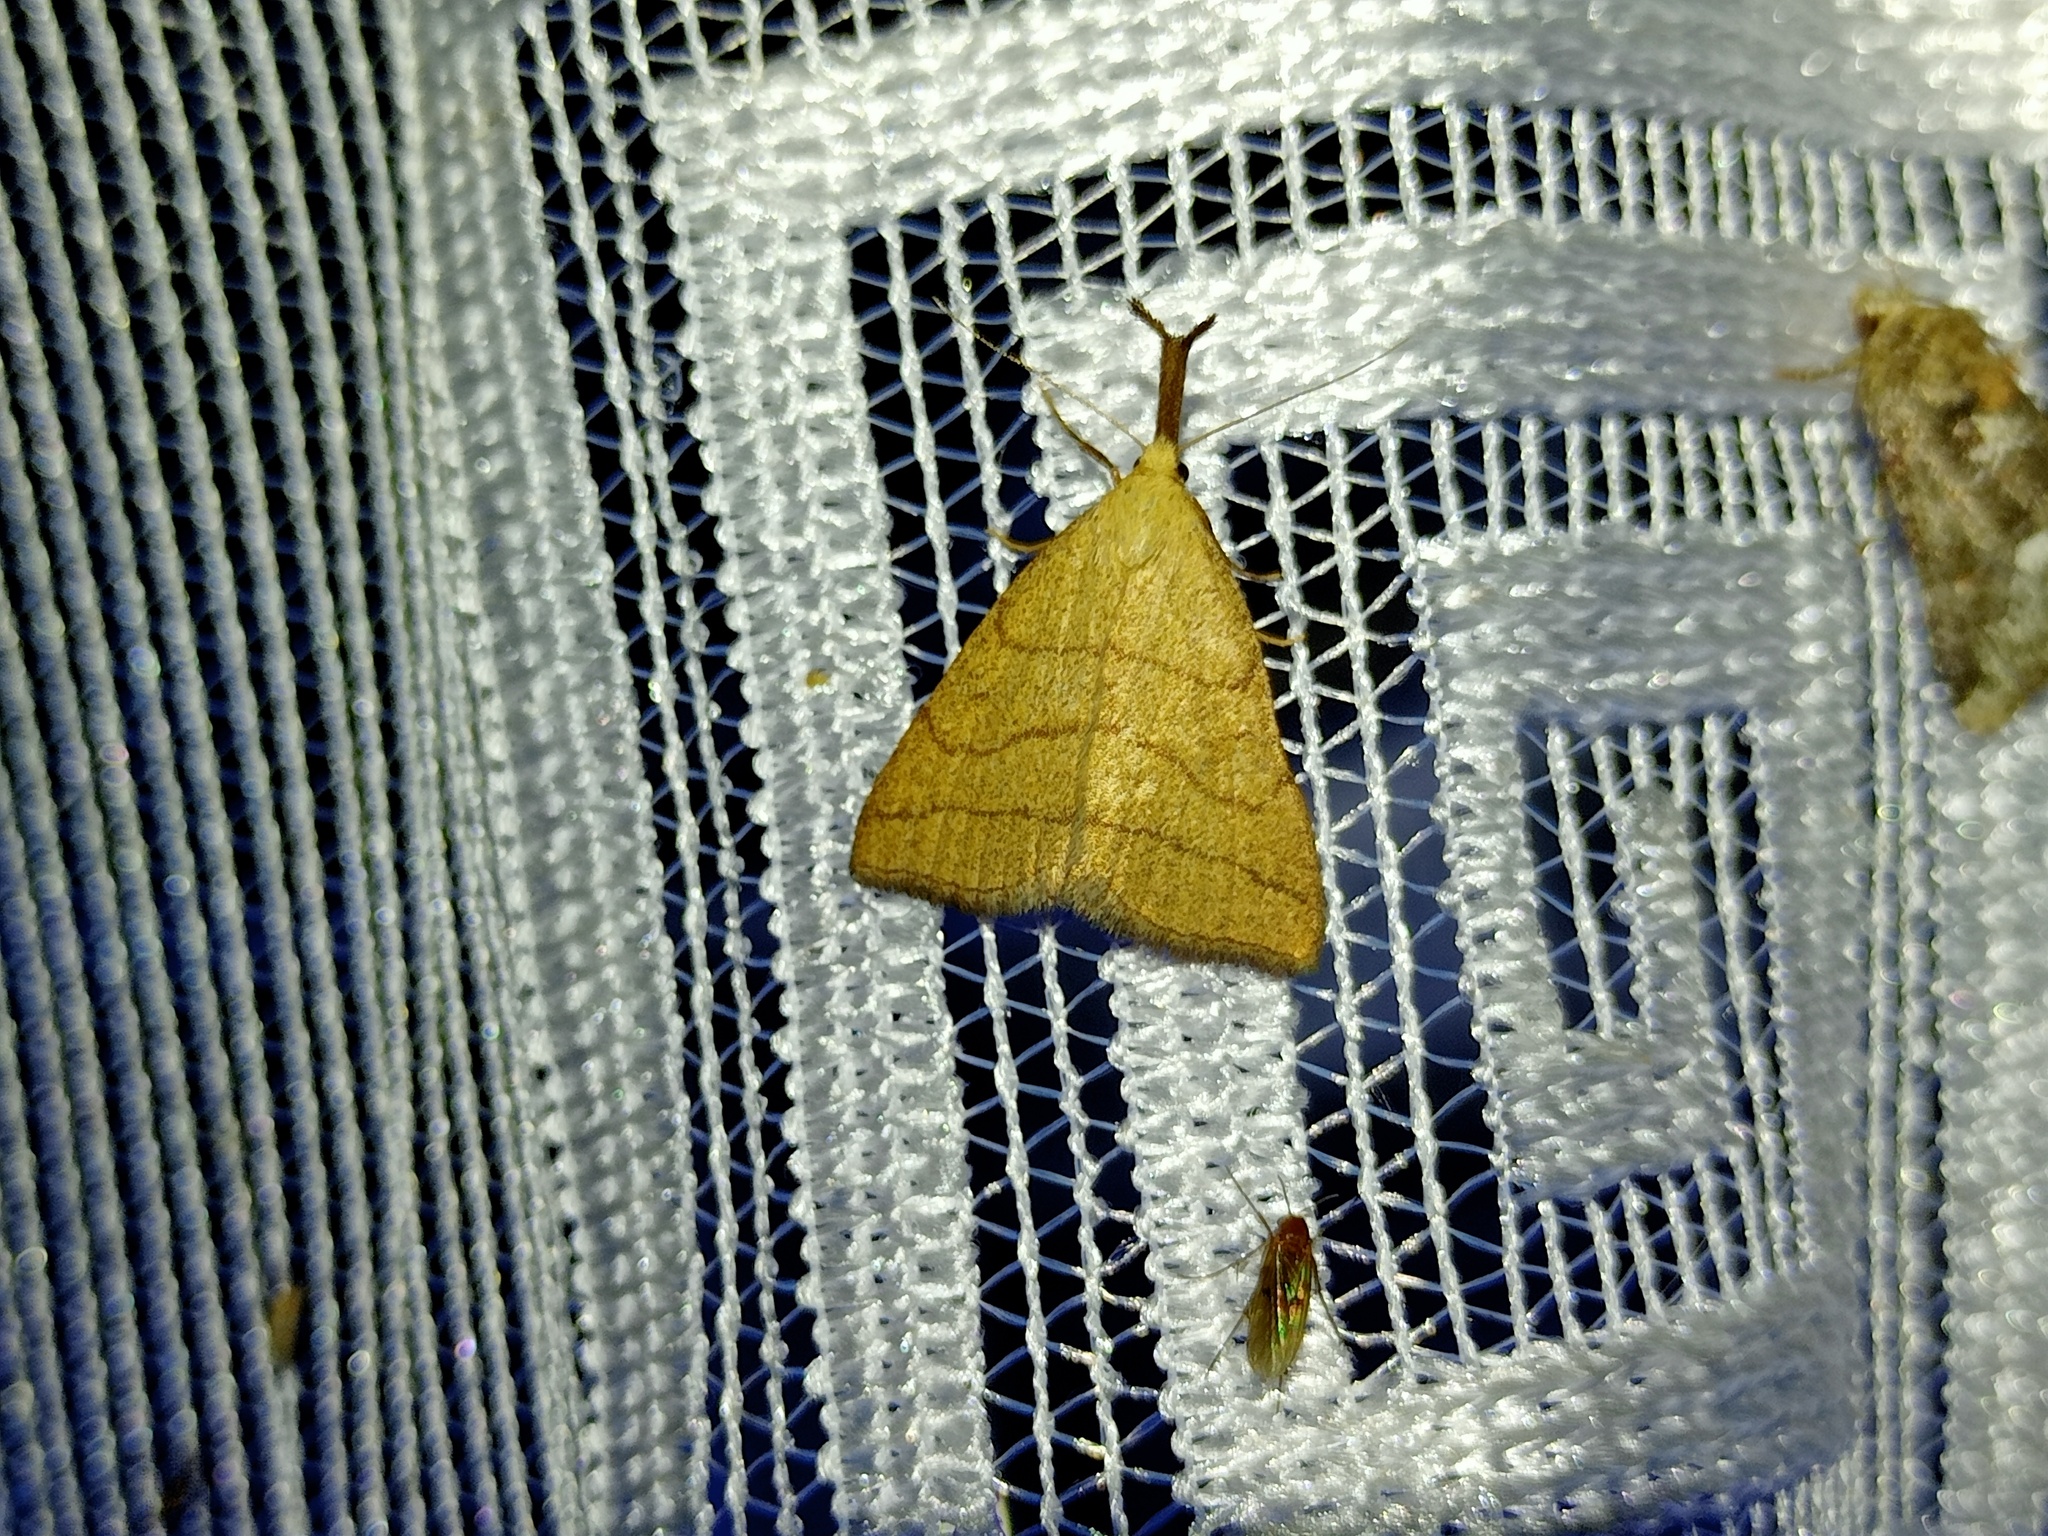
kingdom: Animalia
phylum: Arthropoda
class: Insecta
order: Lepidoptera
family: Erebidae
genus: Polypogon
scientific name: Polypogon tentacularia
